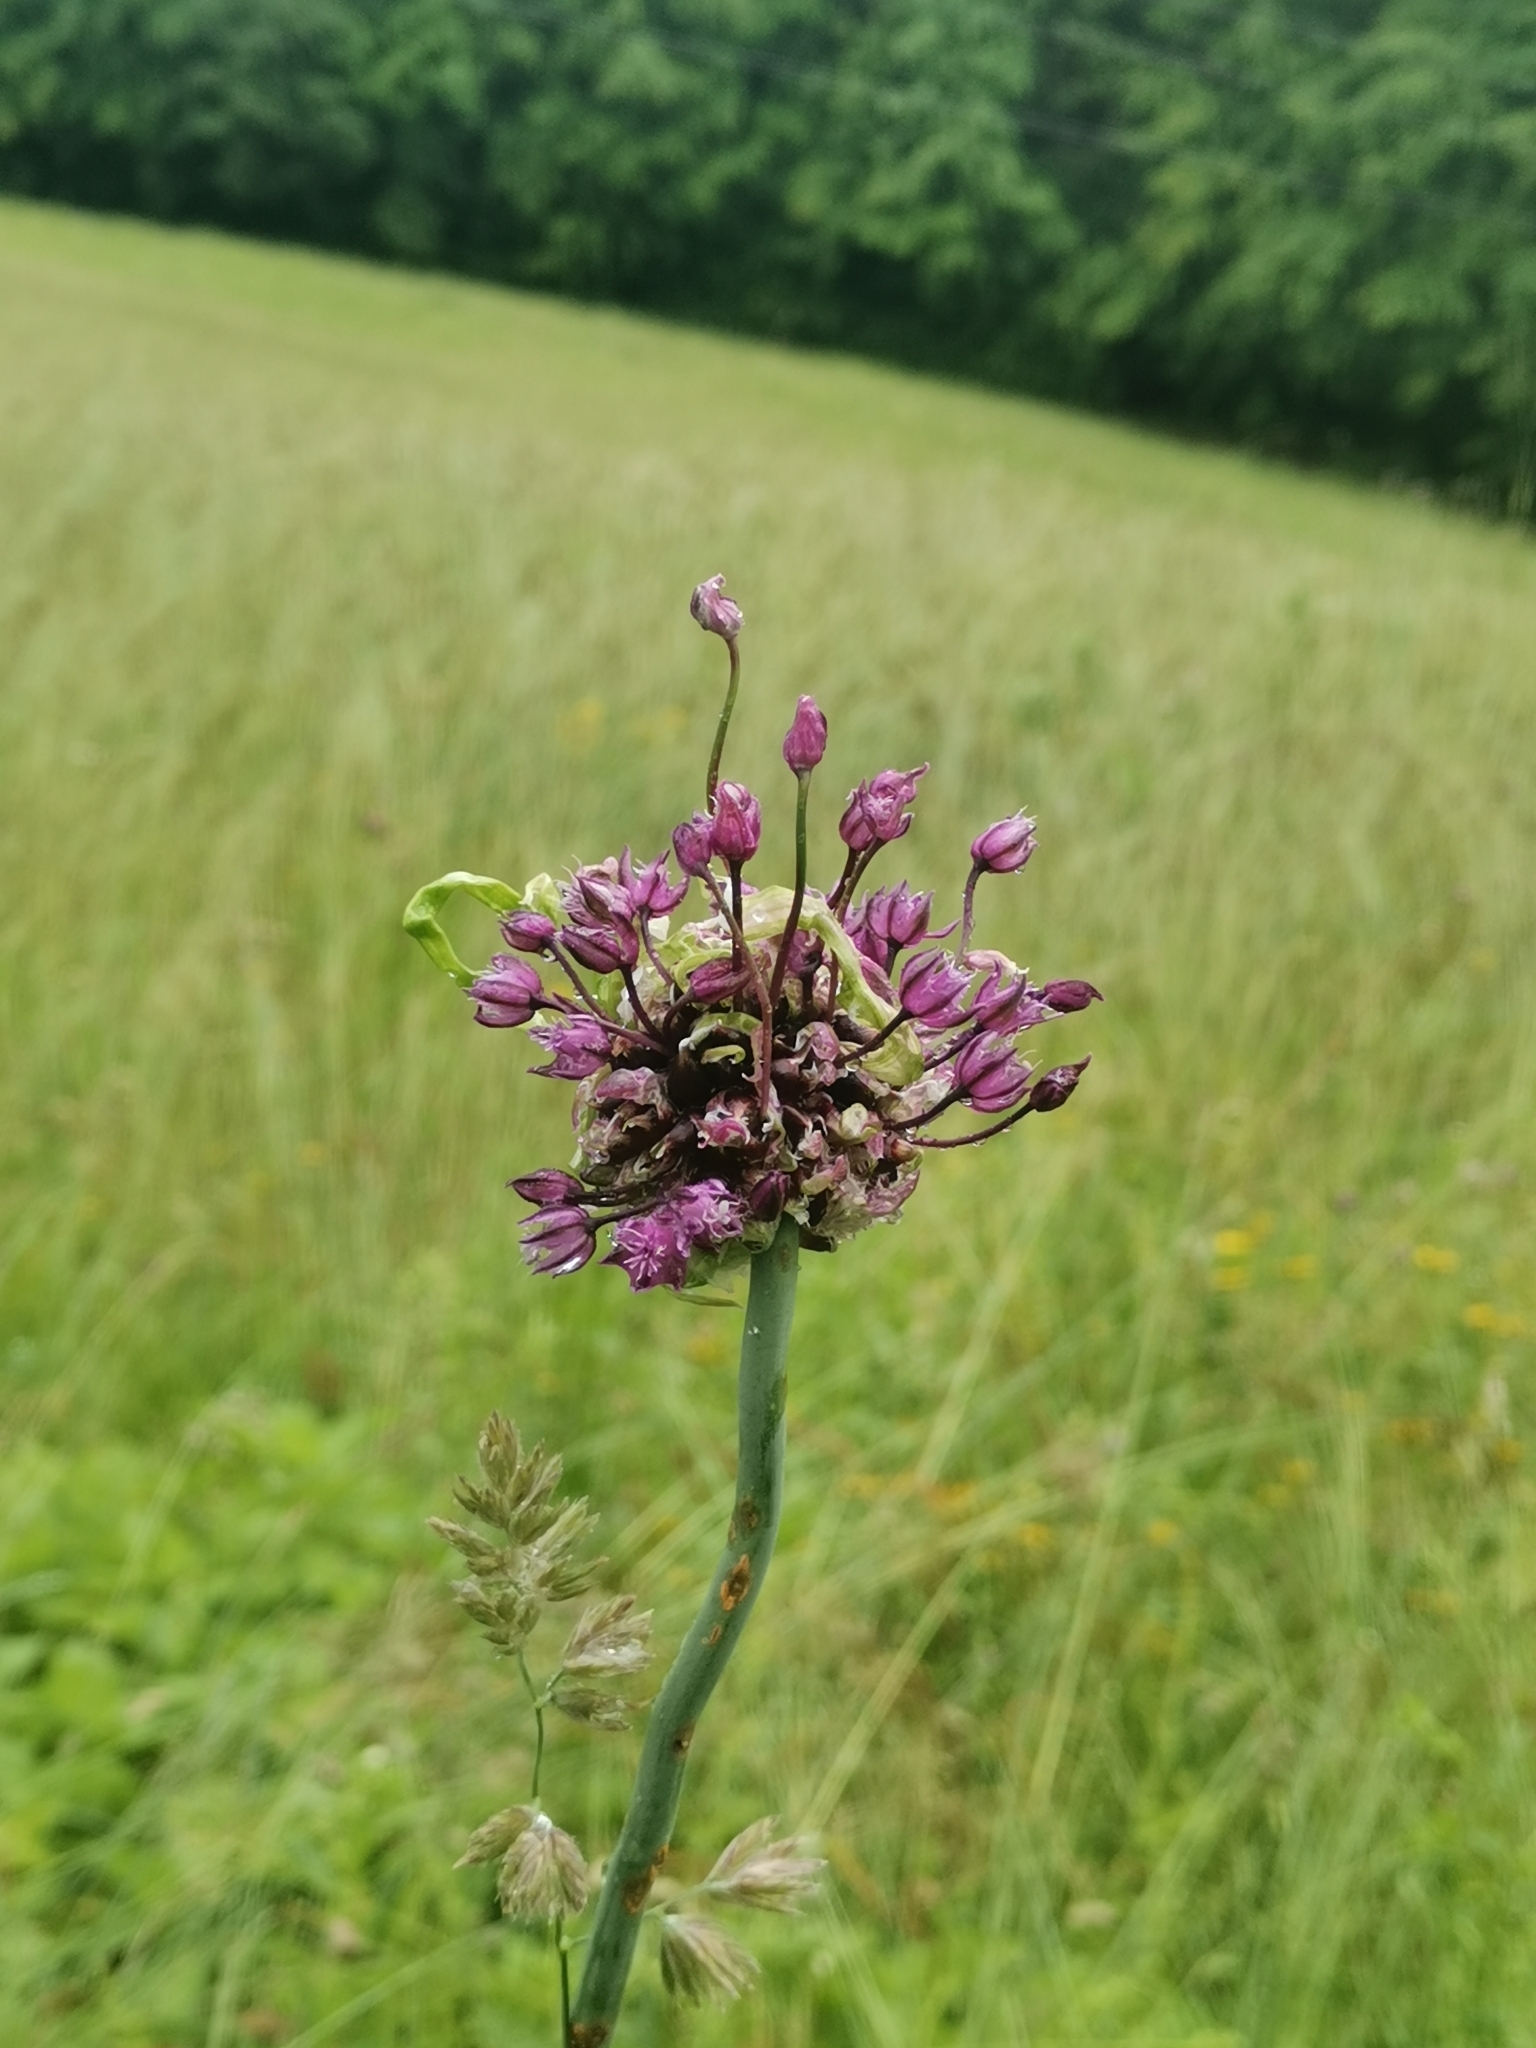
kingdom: Plantae
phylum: Tracheophyta
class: Liliopsida
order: Asparagales
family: Amaryllidaceae
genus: Allium
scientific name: Allium scorodoprasum
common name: Sand leek
